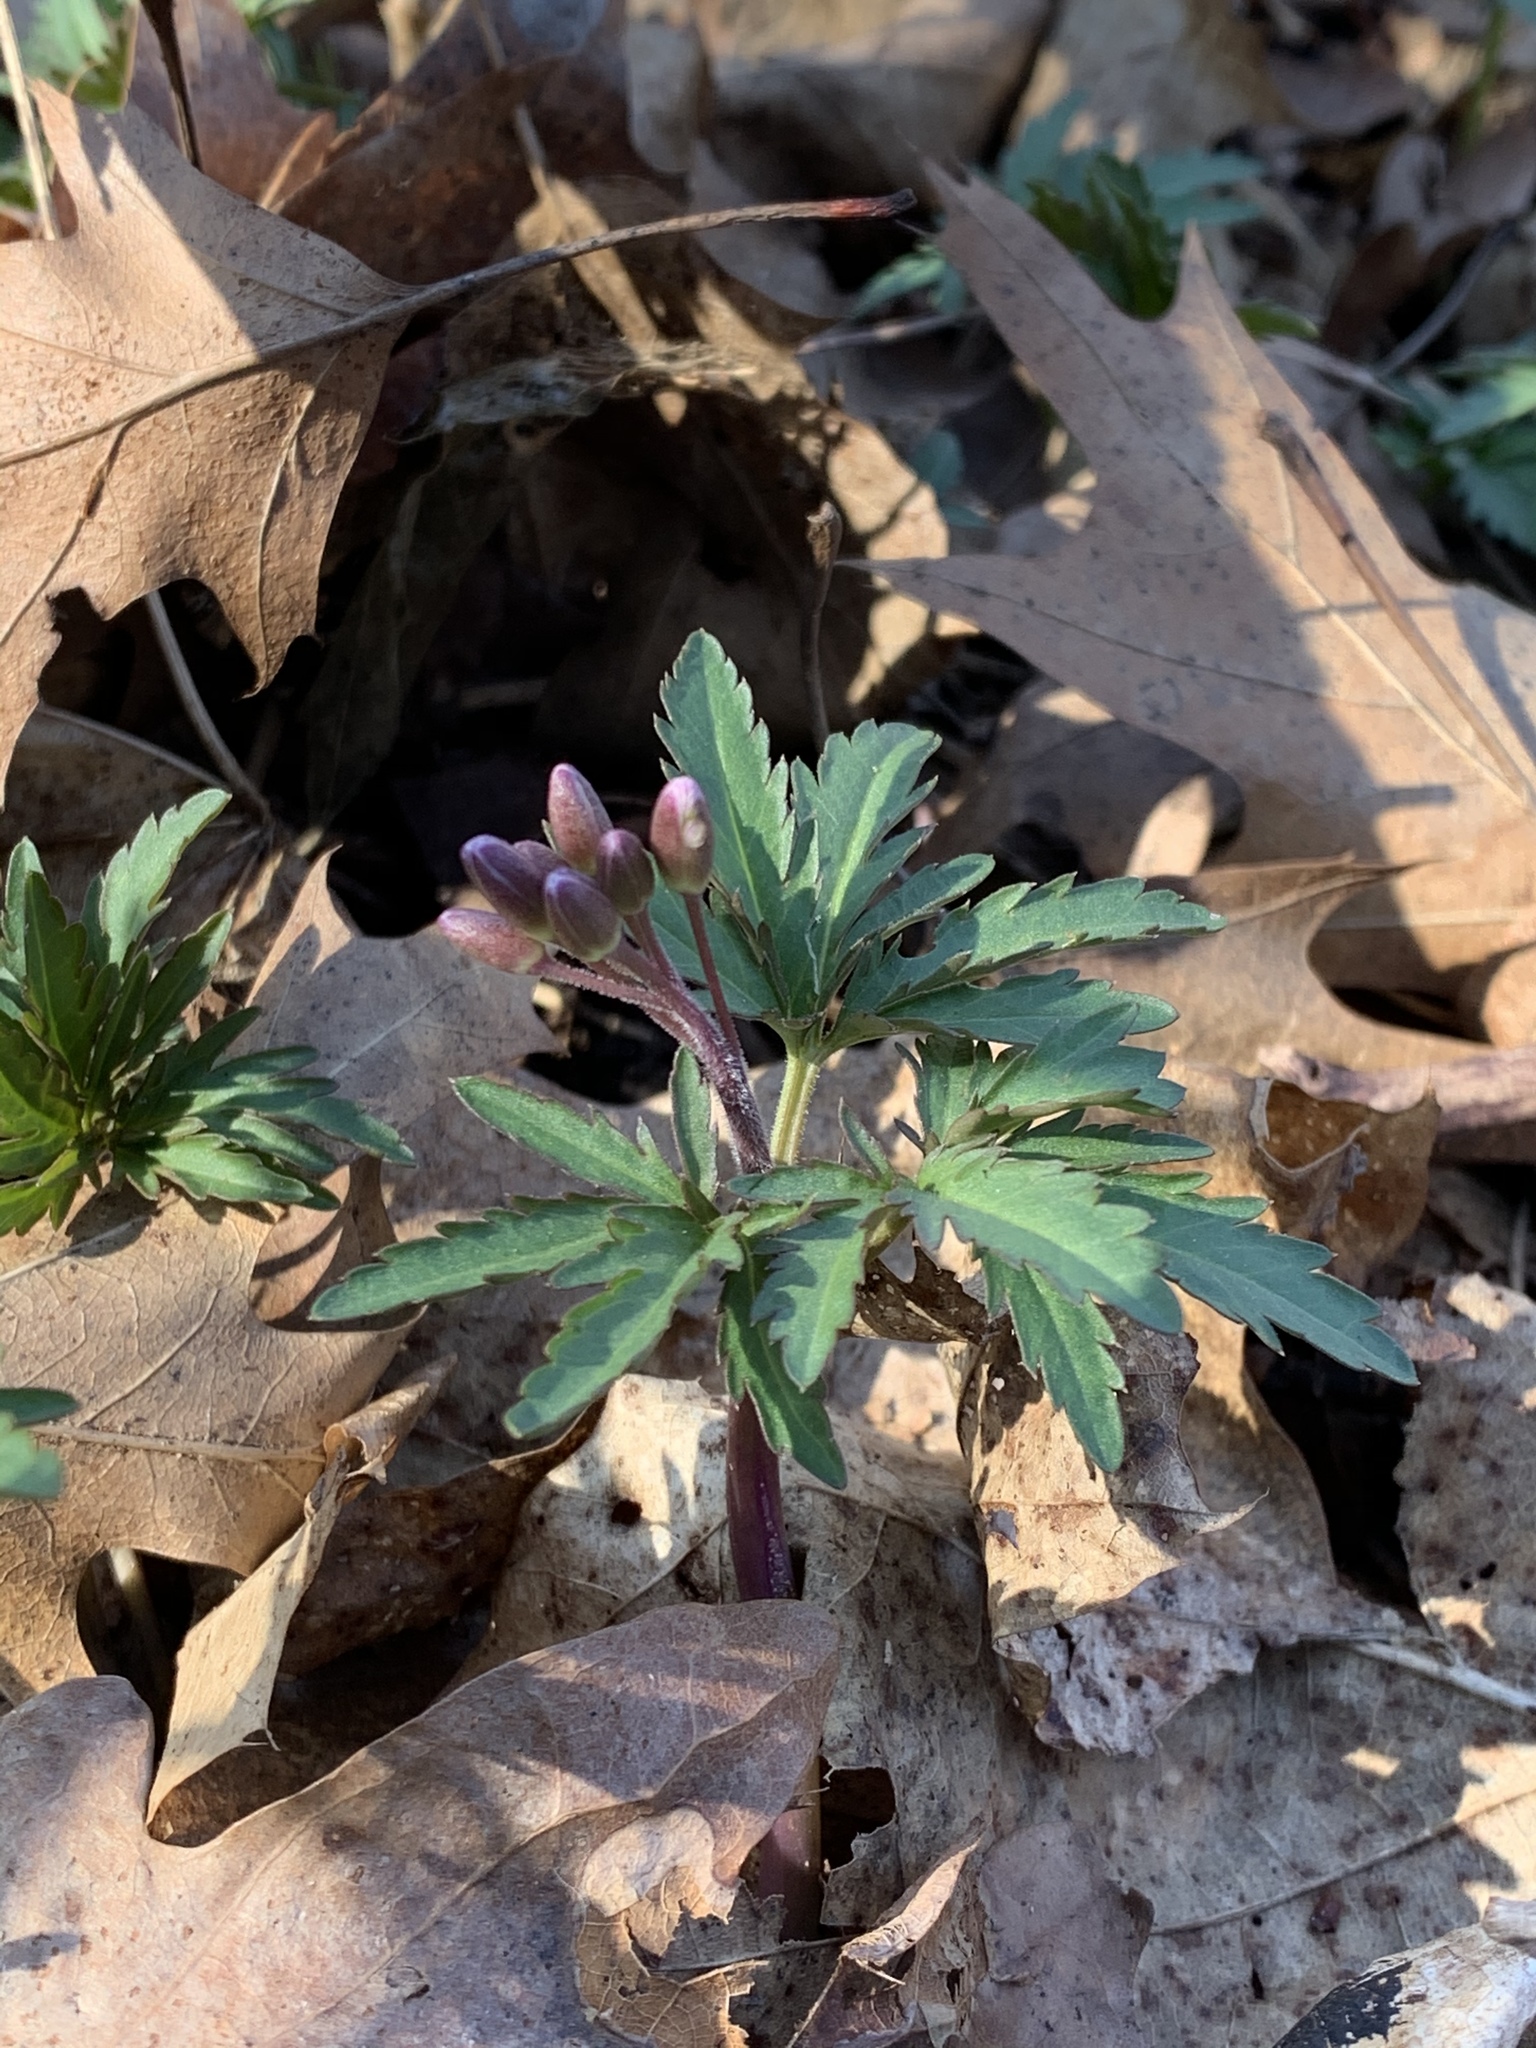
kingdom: Plantae
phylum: Tracheophyta
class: Magnoliopsida
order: Brassicales
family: Brassicaceae
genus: Cardamine
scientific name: Cardamine concatenata
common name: Cut-leaf toothcup
